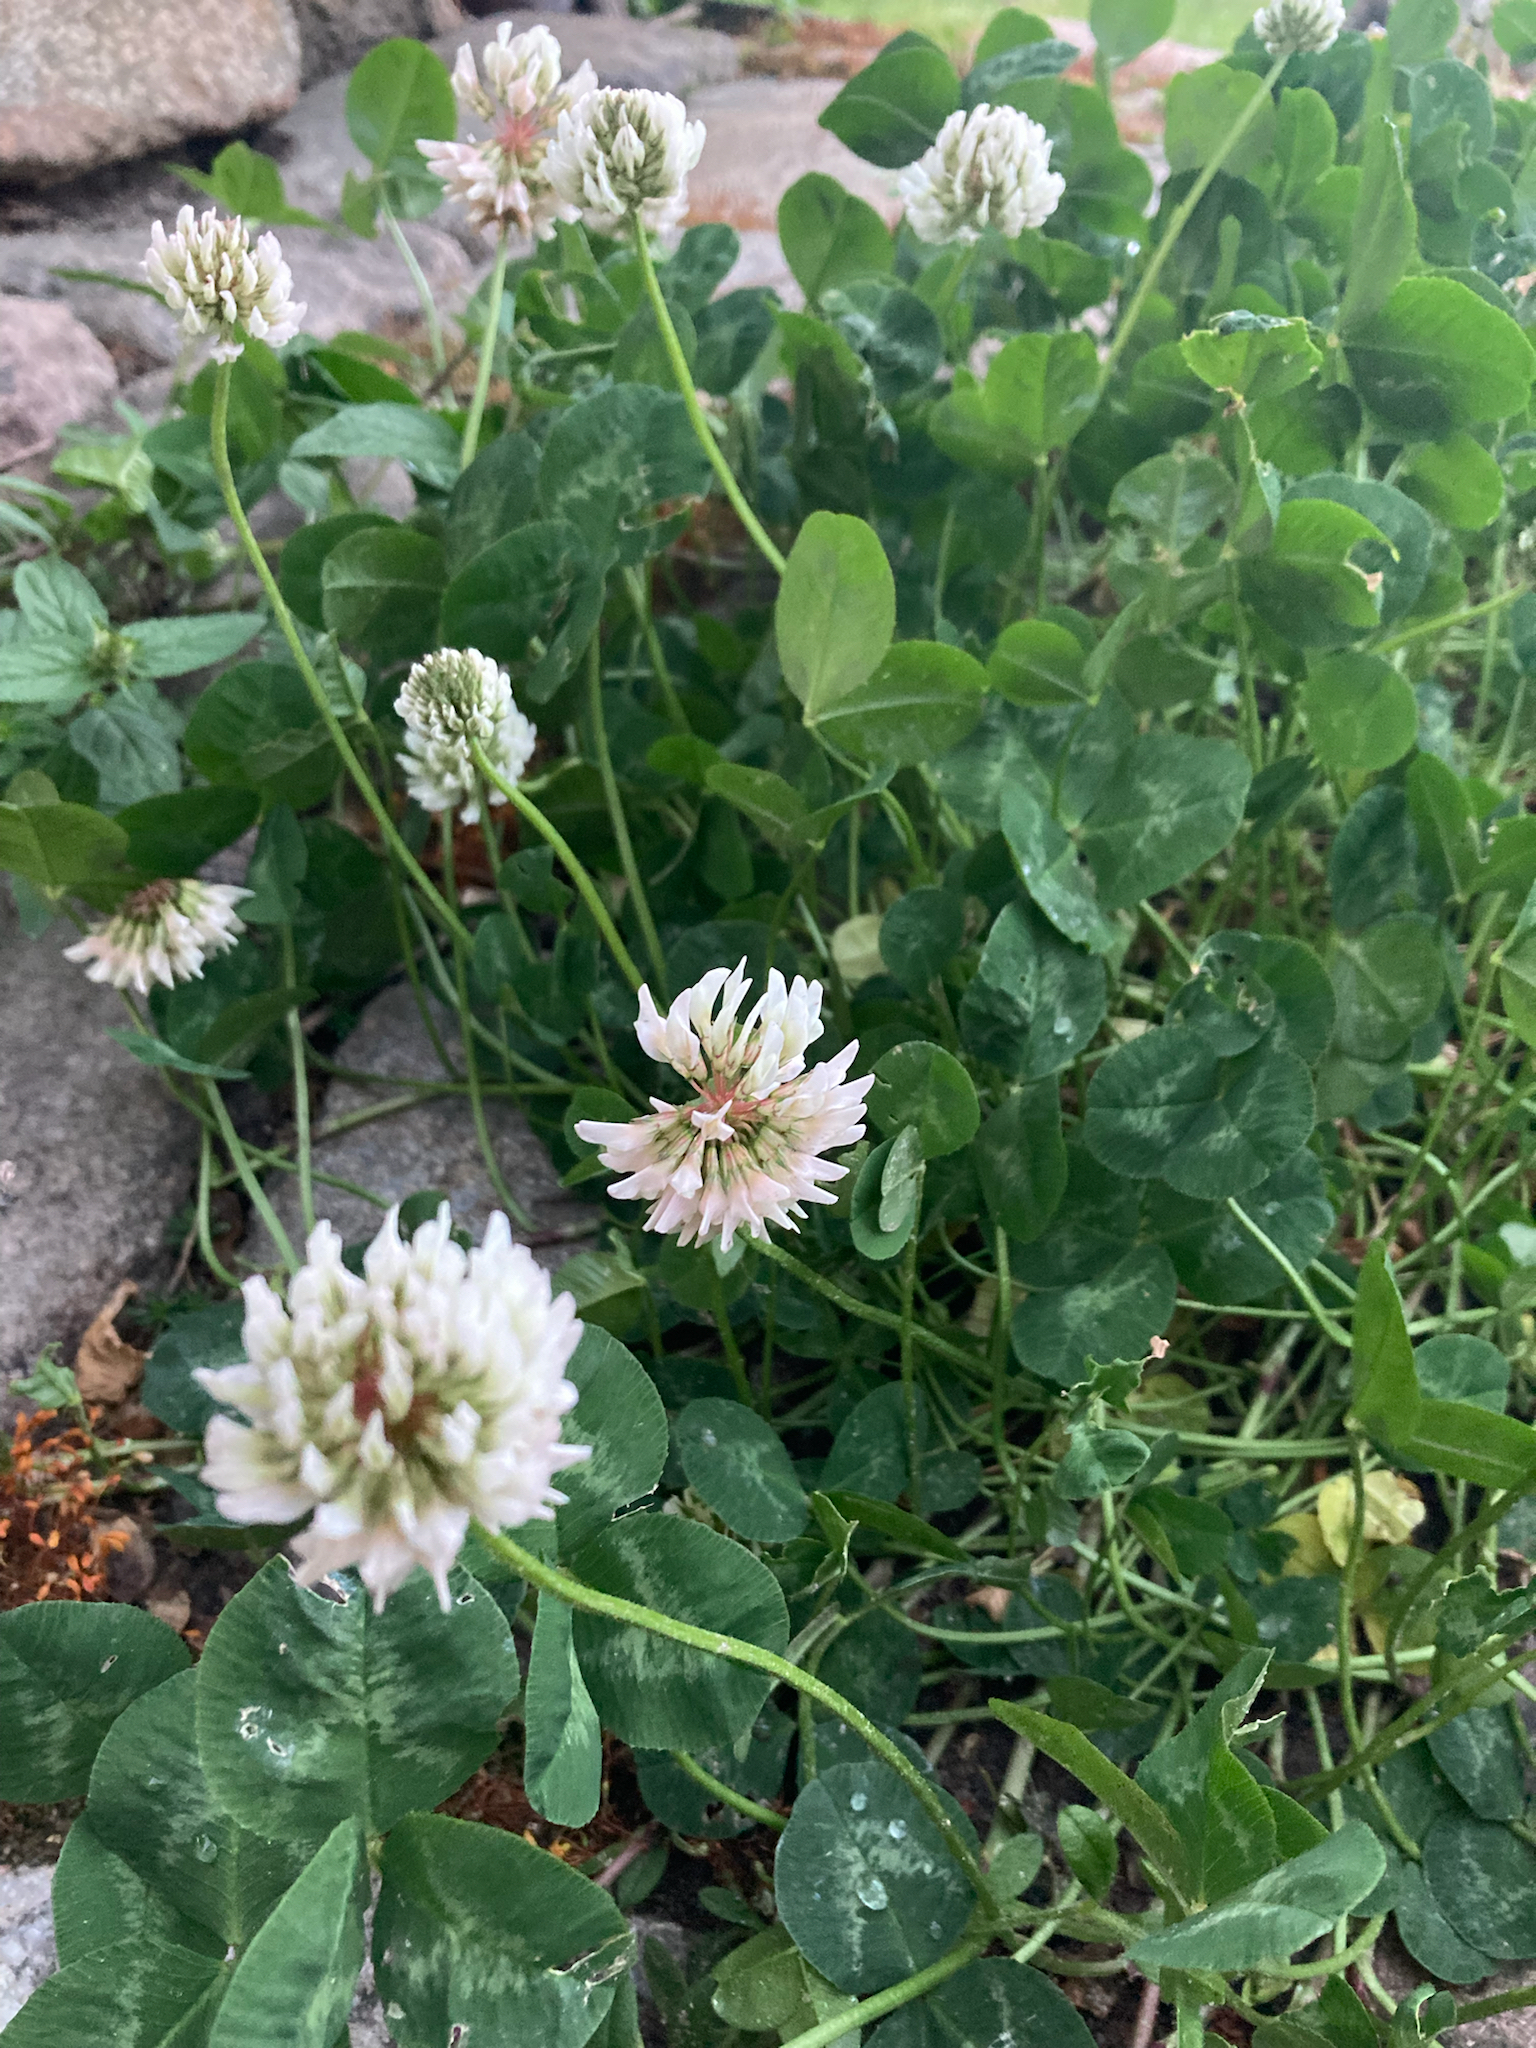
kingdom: Plantae
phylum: Tracheophyta
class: Magnoliopsida
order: Fabales
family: Fabaceae
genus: Trifolium
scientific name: Trifolium repens
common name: White clover
